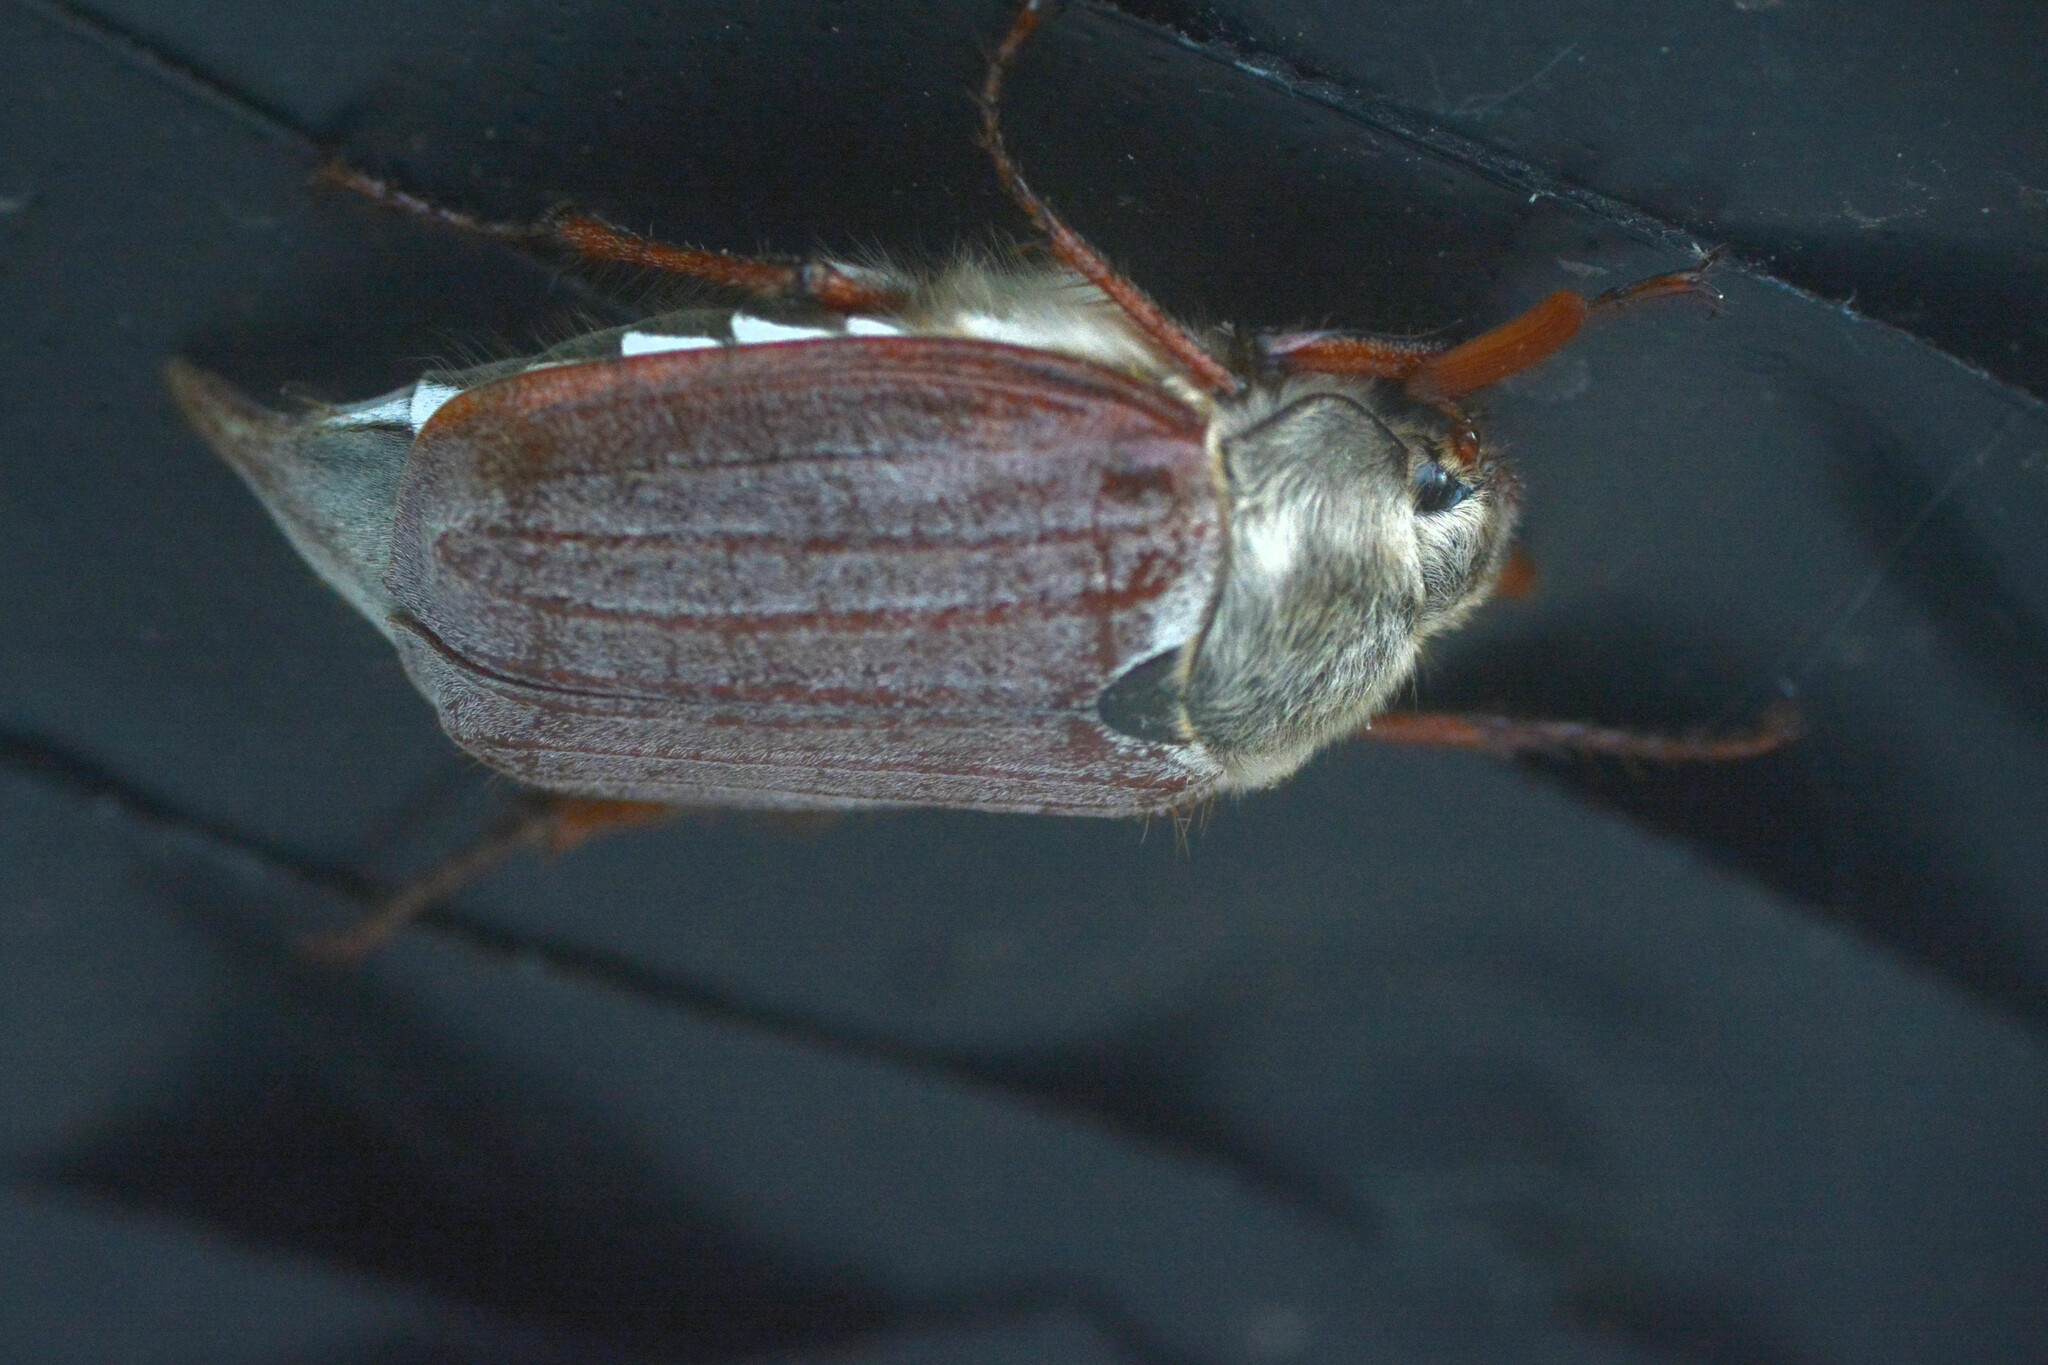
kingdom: Animalia
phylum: Arthropoda
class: Insecta
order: Coleoptera
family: Scarabaeidae
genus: Melolontha
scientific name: Melolontha melolontha
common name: Cockchafer maybeetle
